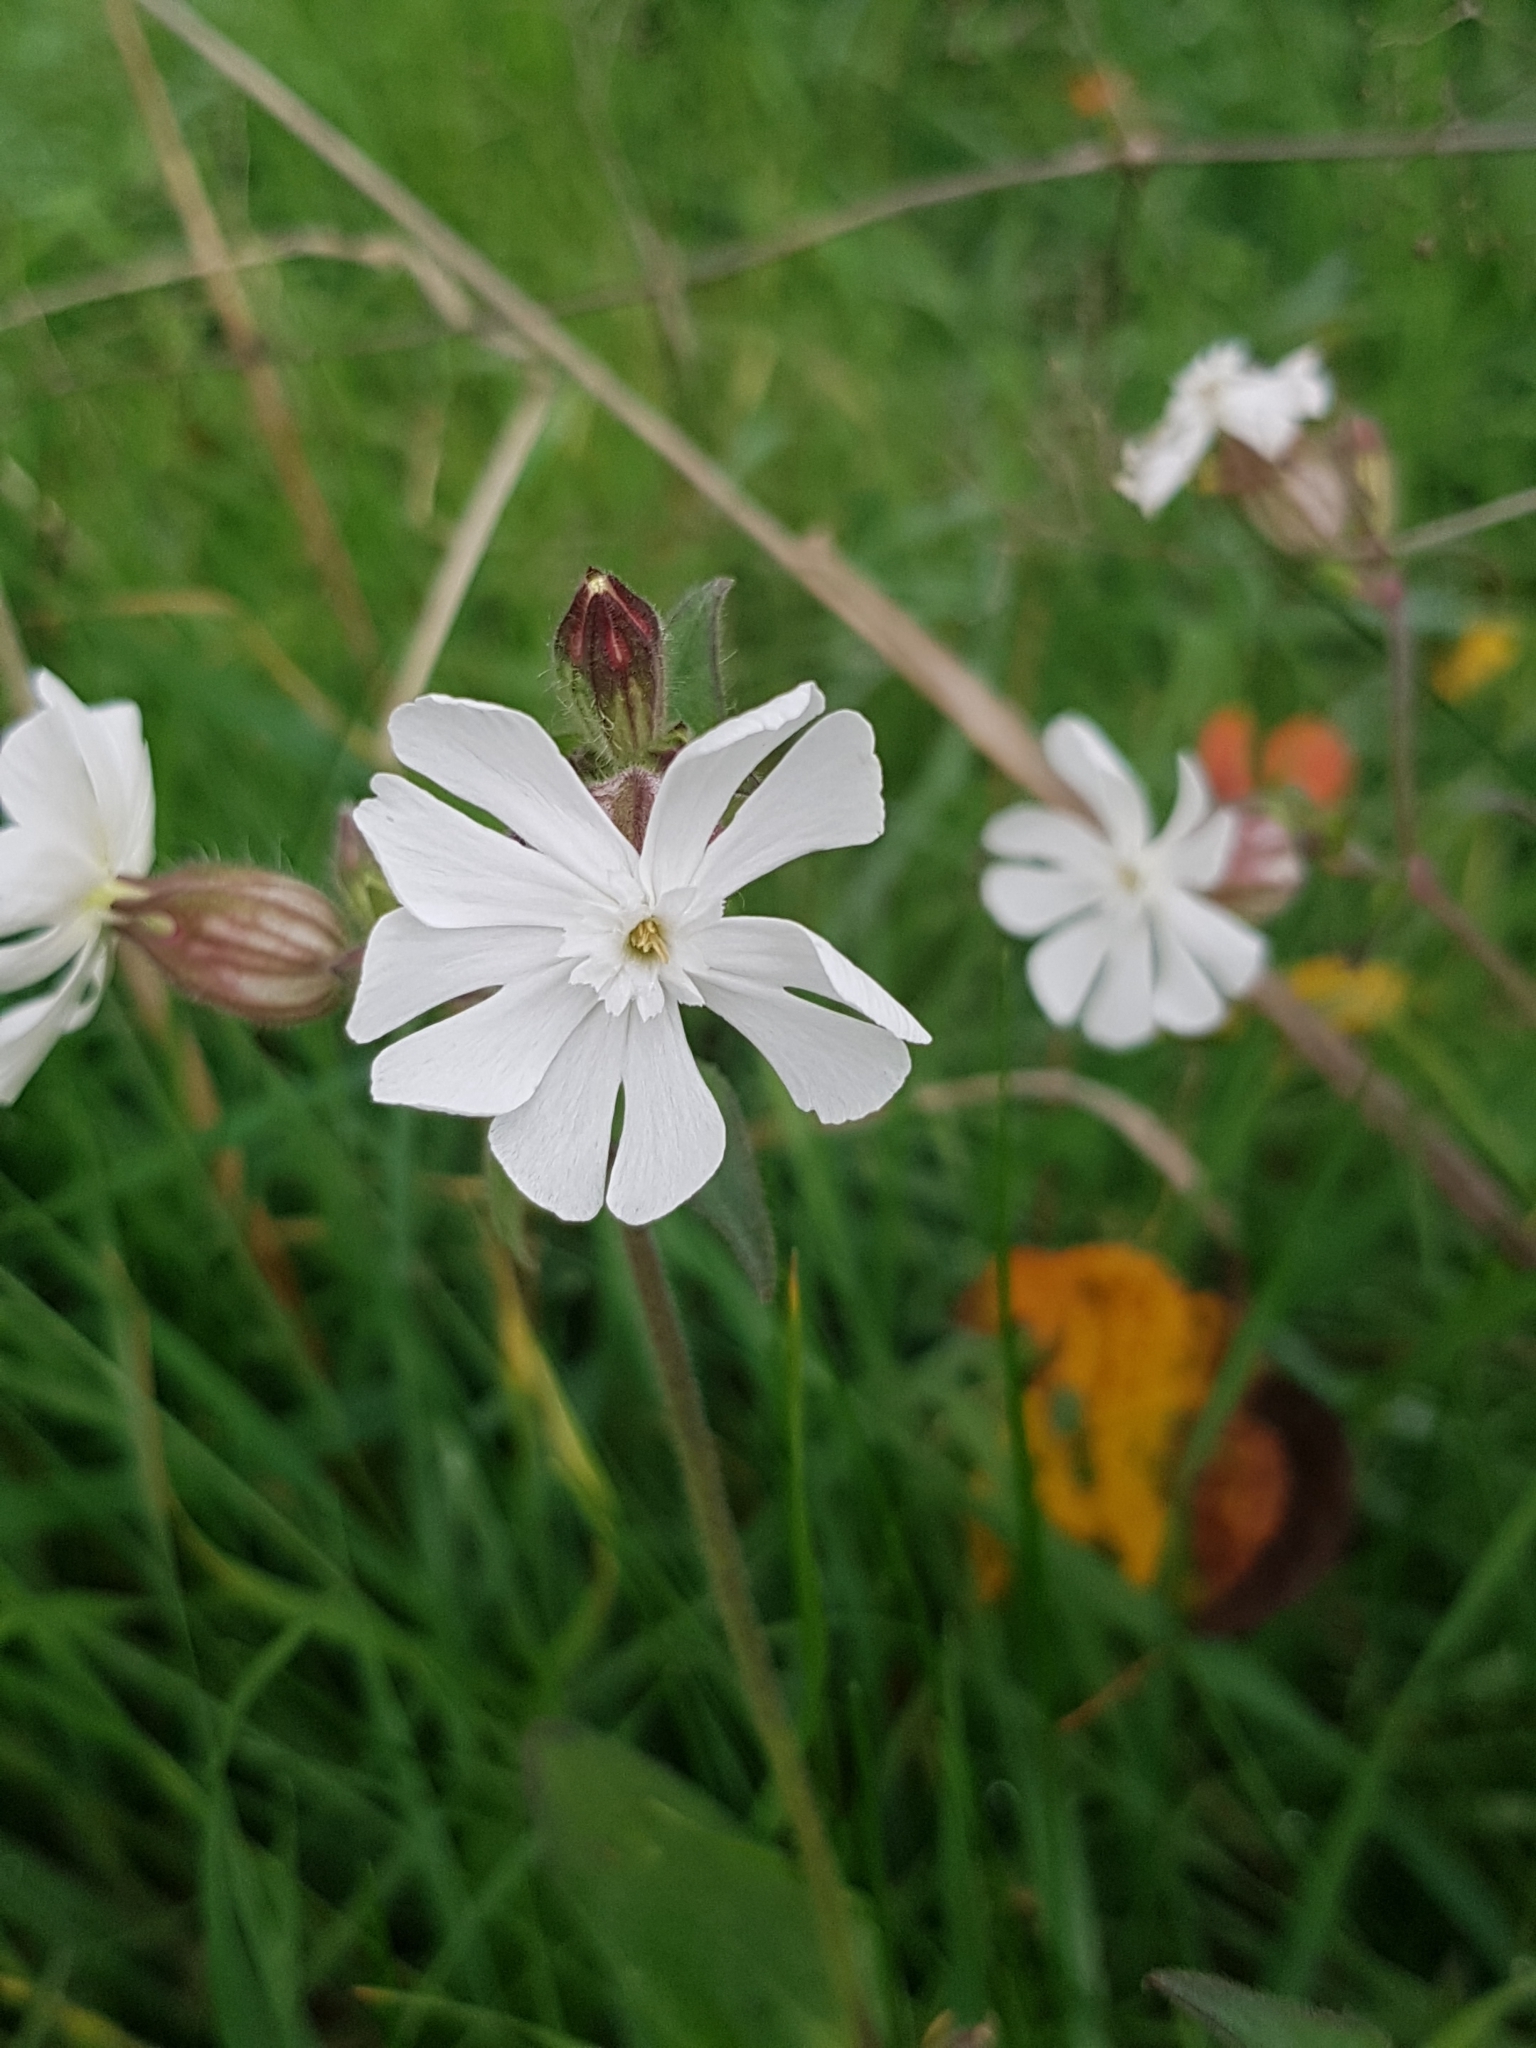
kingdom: Plantae
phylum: Tracheophyta
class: Magnoliopsida
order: Caryophyllales
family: Caryophyllaceae
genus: Silene
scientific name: Silene latifolia
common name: White campion
